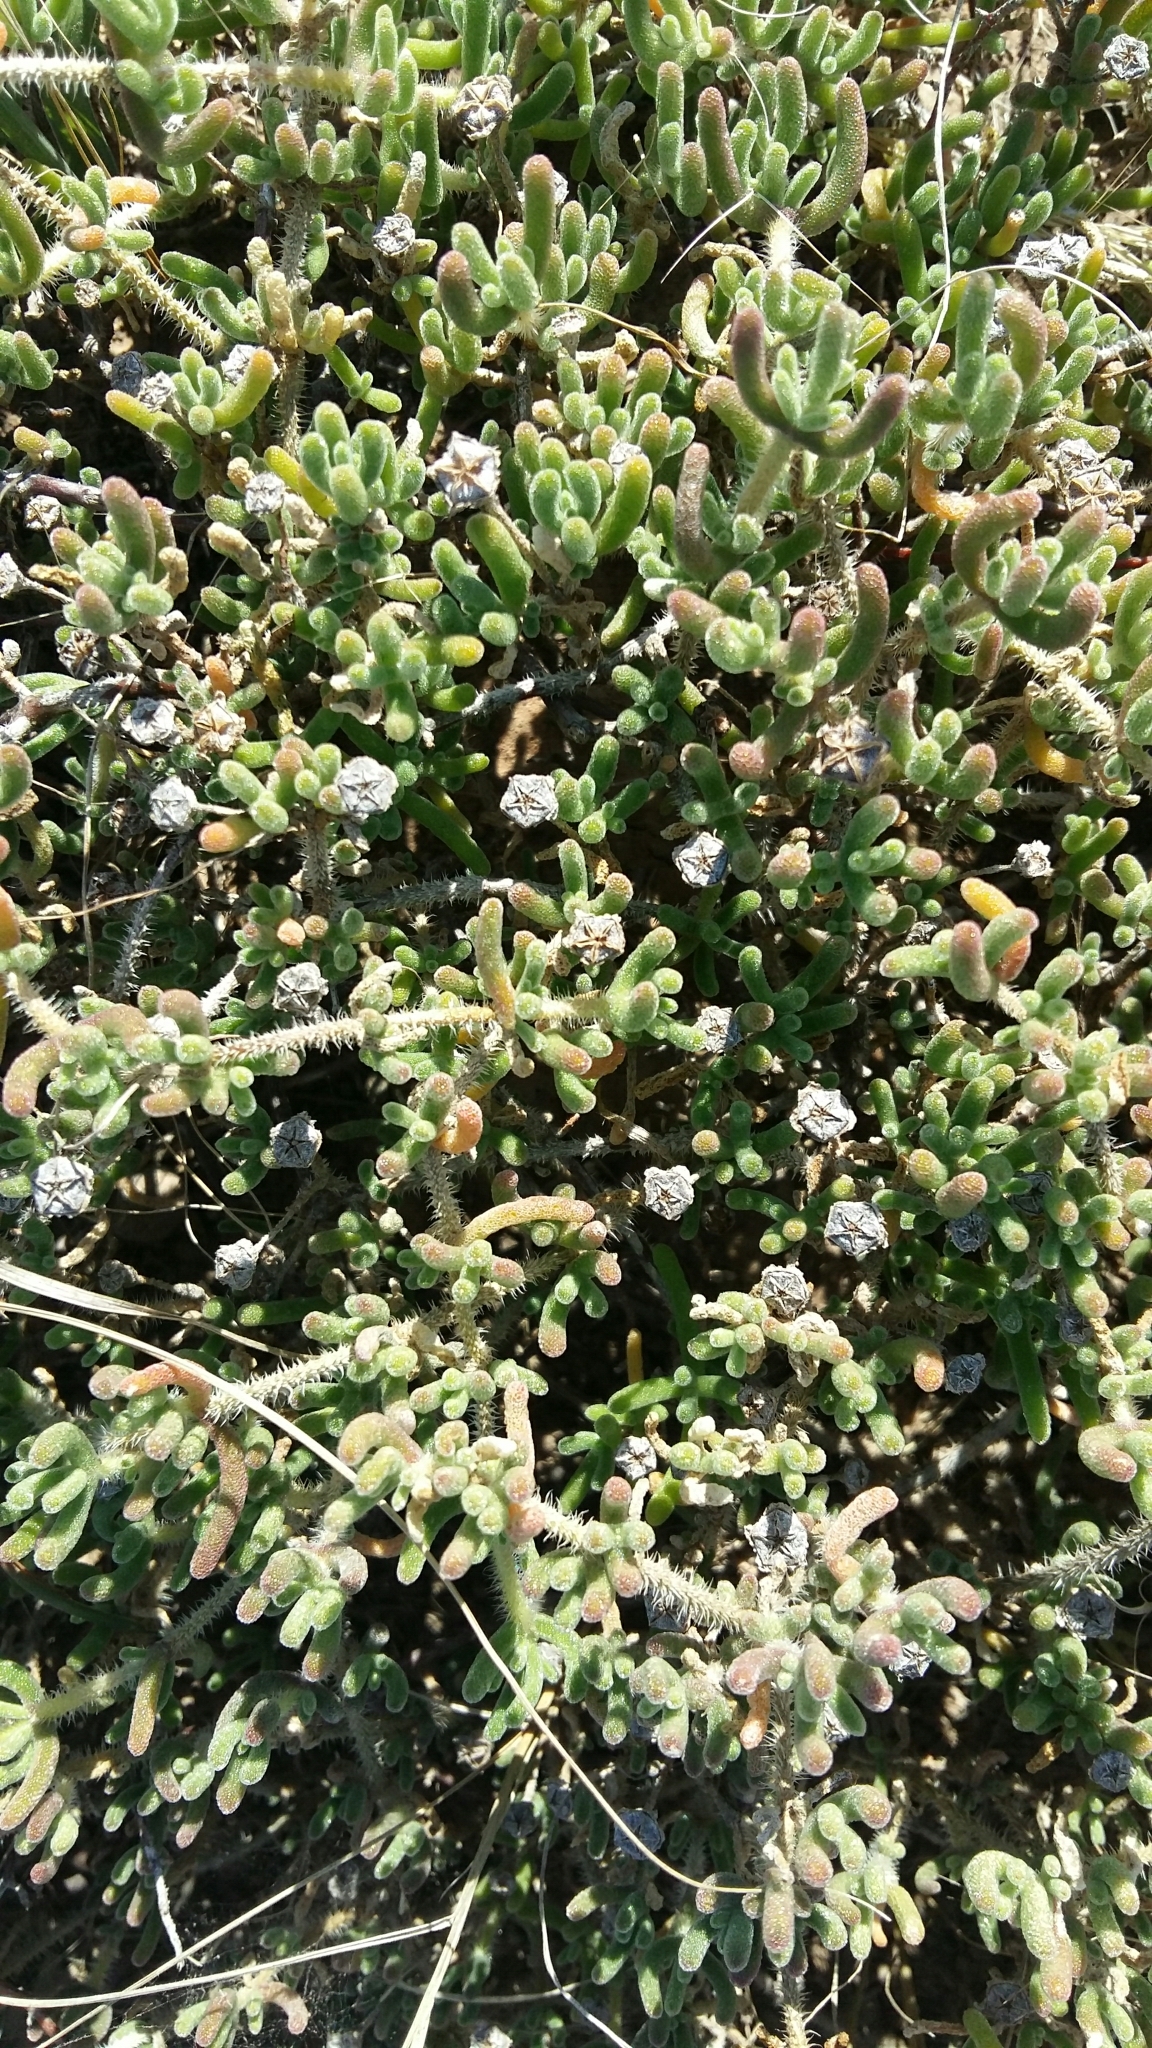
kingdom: Plantae
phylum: Tracheophyta
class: Magnoliopsida
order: Caryophyllales
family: Aizoaceae
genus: Drosanthemum
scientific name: Drosanthemum hispidum
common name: Hairy dewflower
